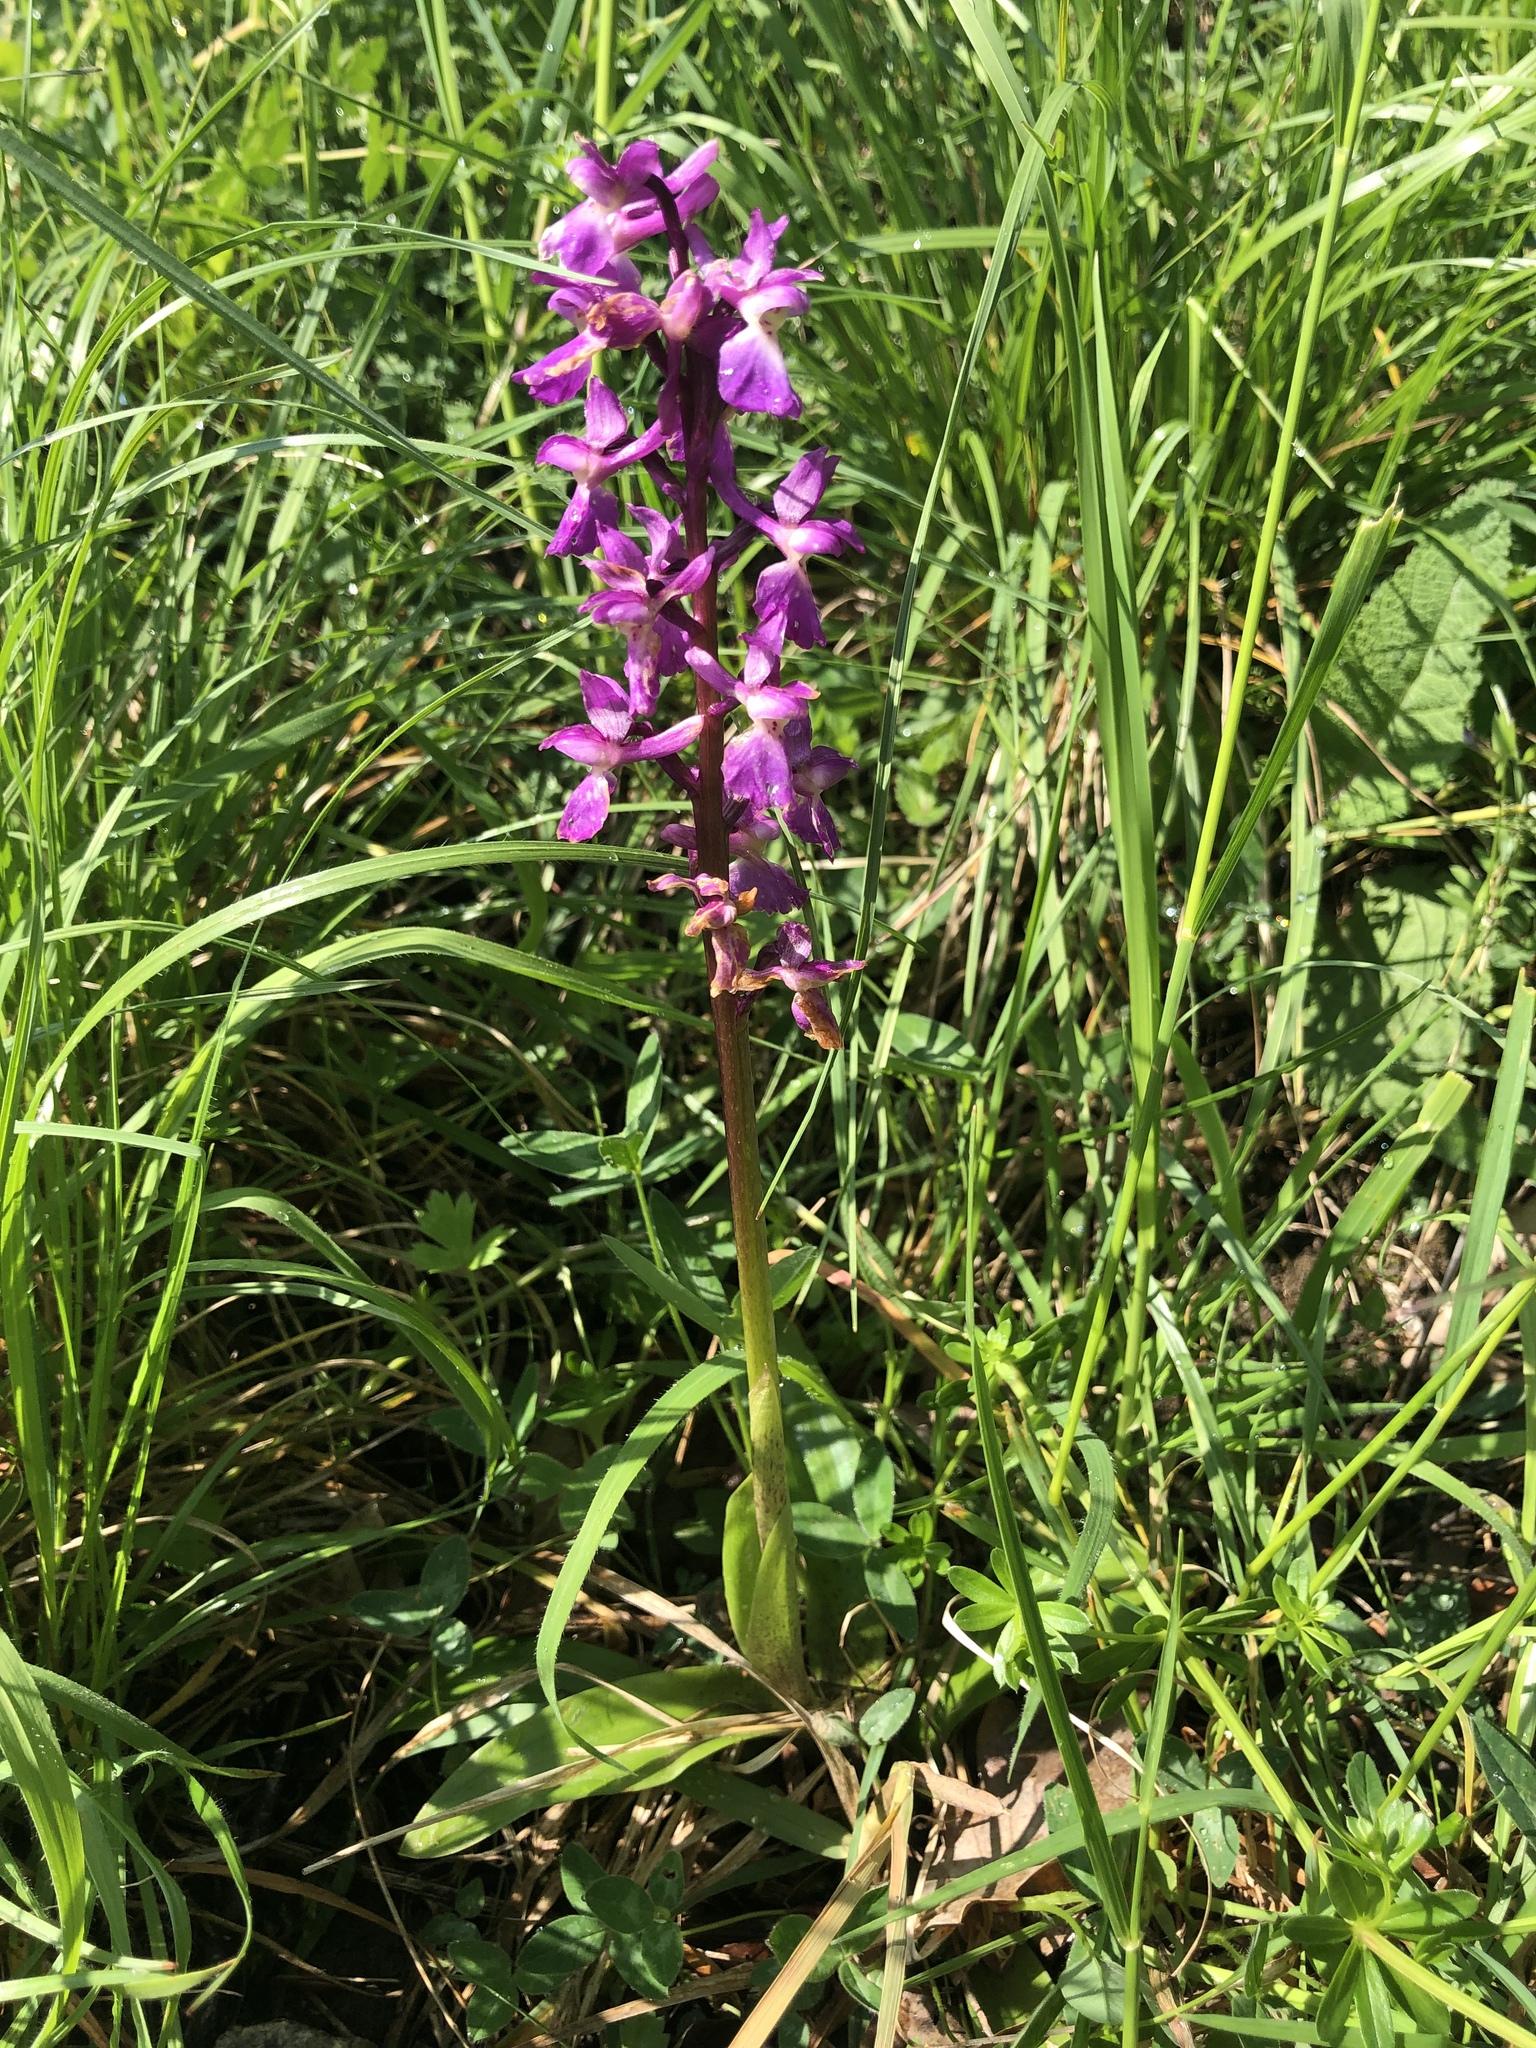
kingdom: Plantae
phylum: Tracheophyta
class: Liliopsida
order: Asparagales
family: Orchidaceae
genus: Orchis
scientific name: Orchis mascula
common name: Early-purple orchid
